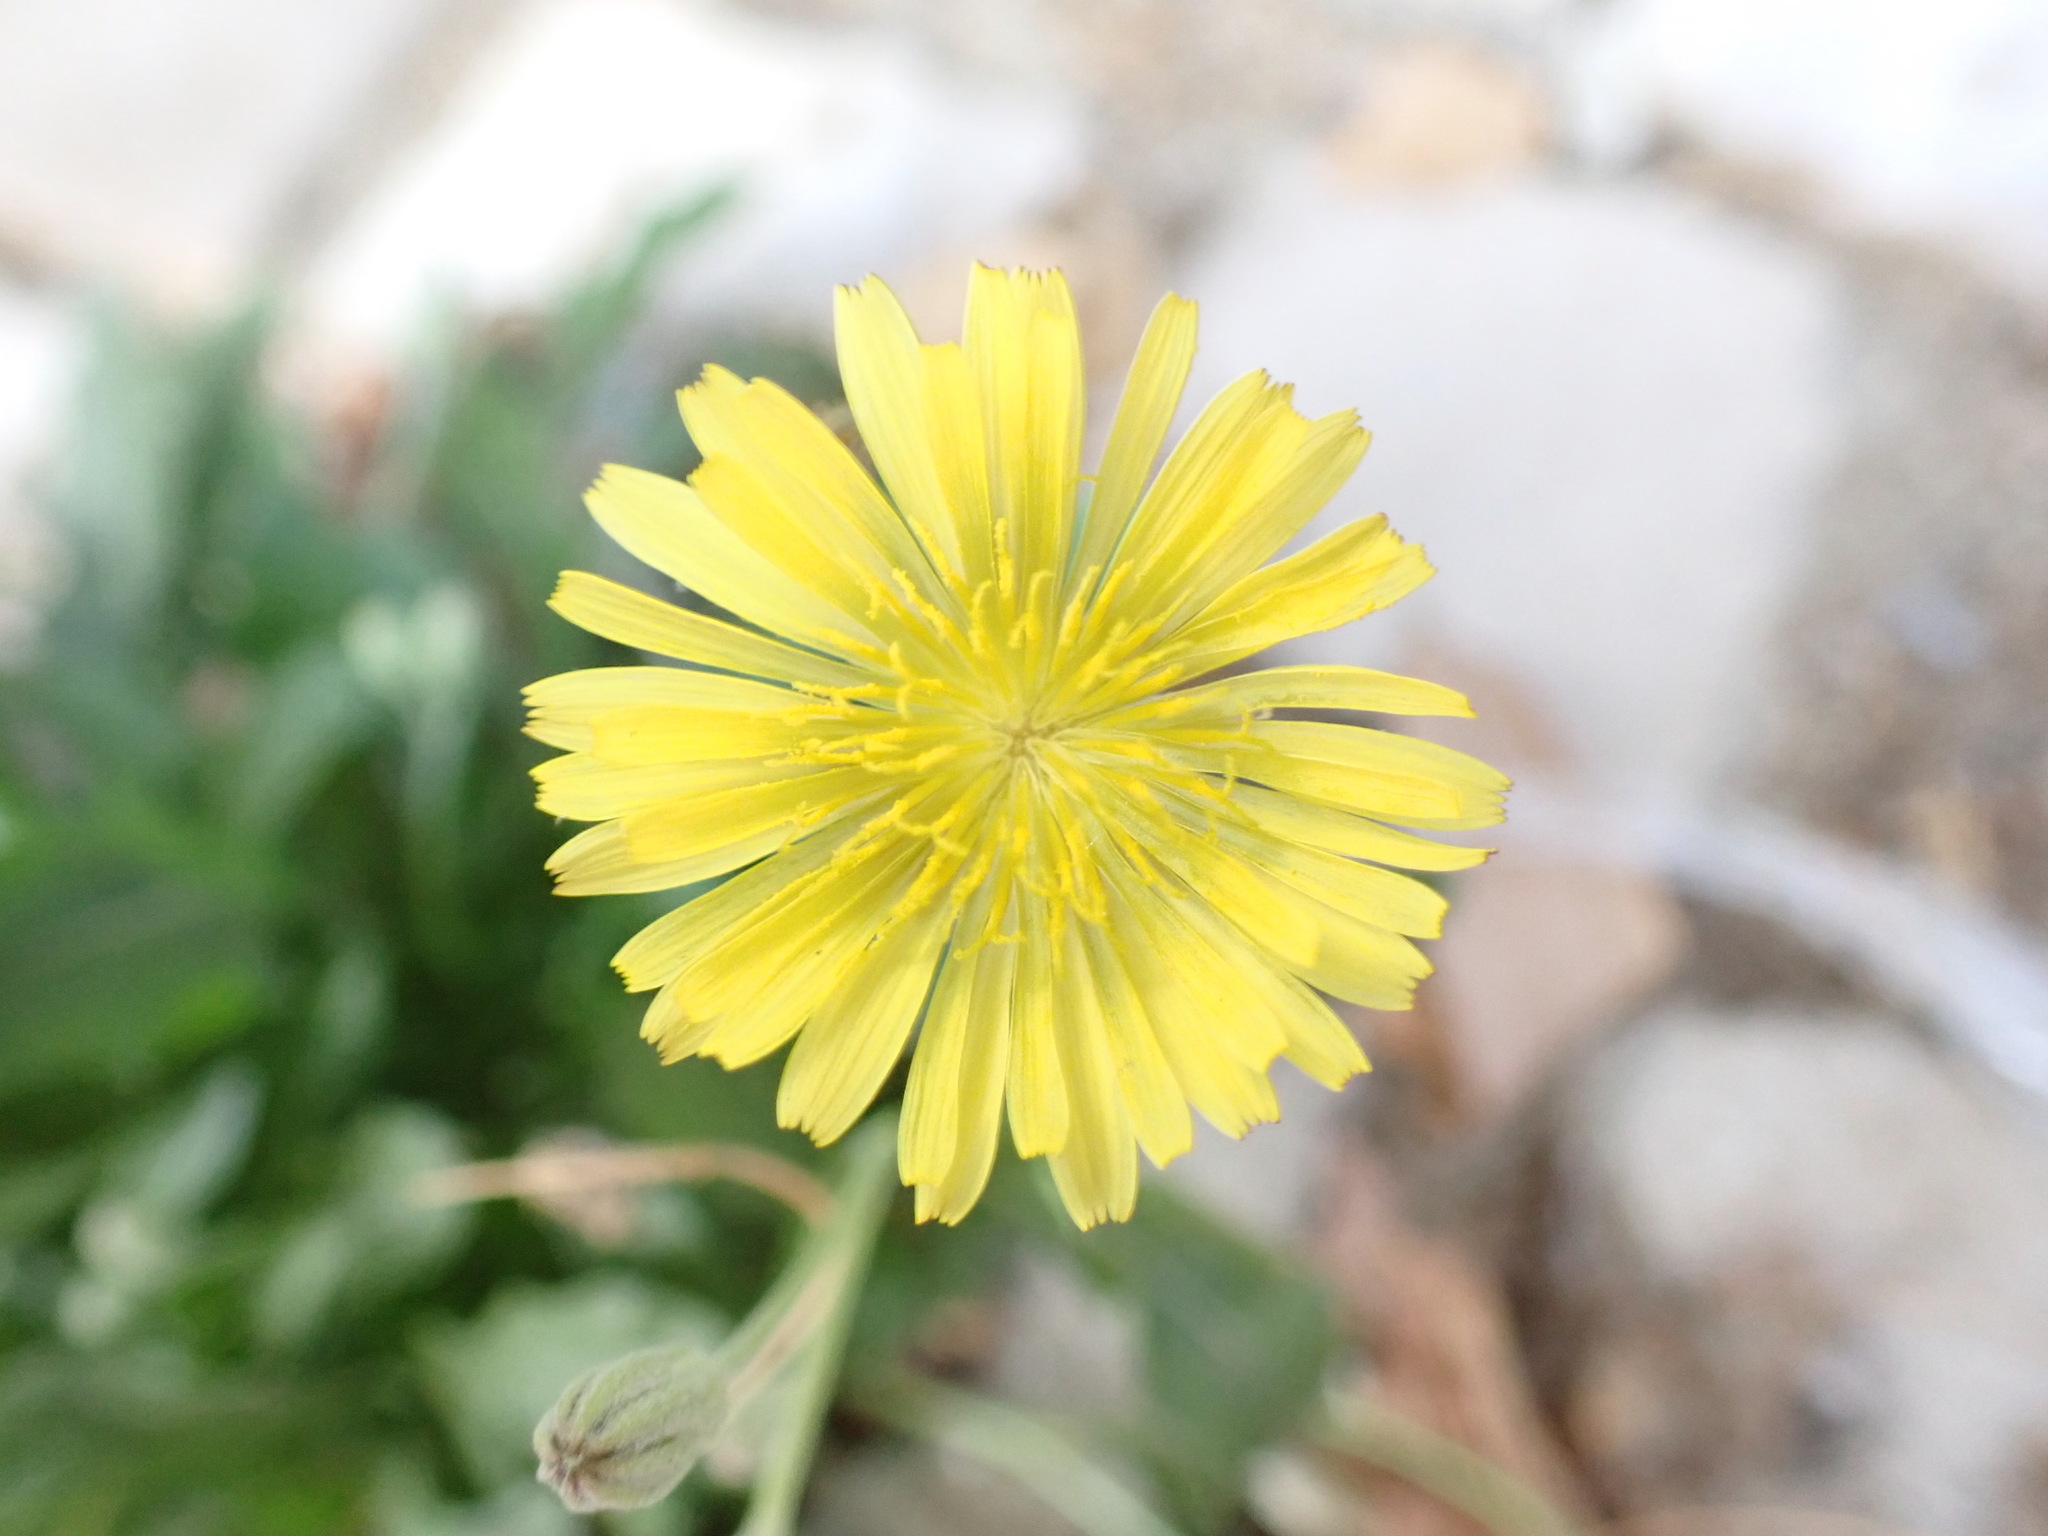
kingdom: Plantae
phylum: Tracheophyta
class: Magnoliopsida
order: Asterales
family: Asteraceae
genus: Crepis
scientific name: Crepis bursifolia
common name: Italian hawksbeard
